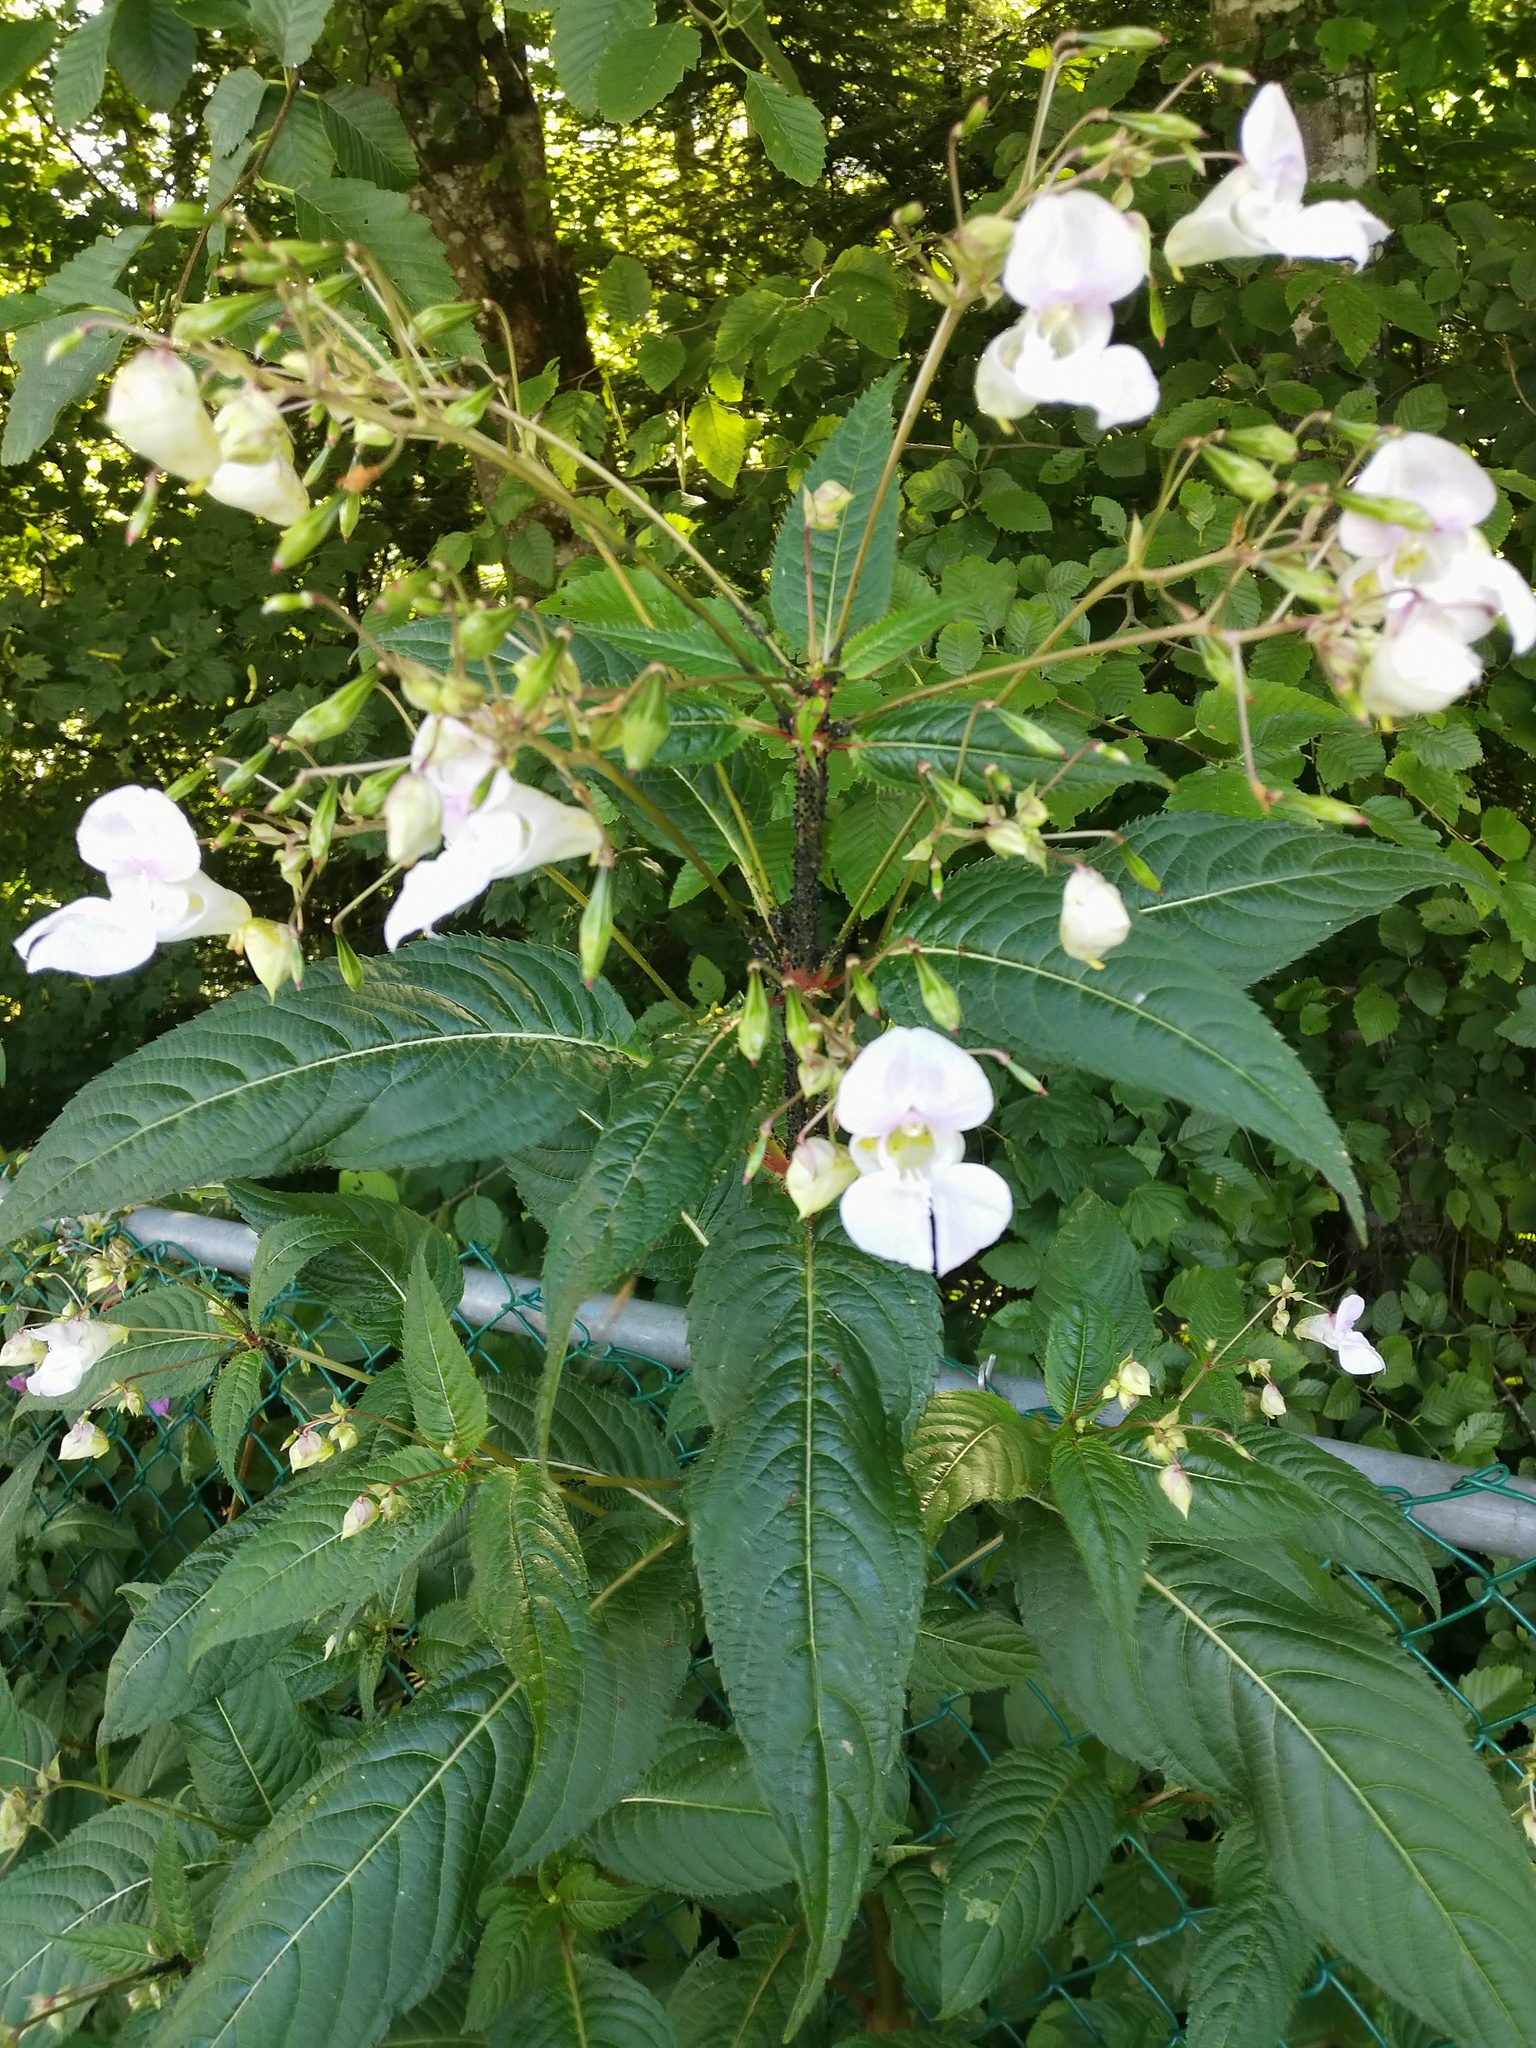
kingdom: Plantae
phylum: Tracheophyta
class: Magnoliopsida
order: Ericales
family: Balsaminaceae
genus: Impatiens
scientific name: Impatiens glandulifera
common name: Himalayan balsam
